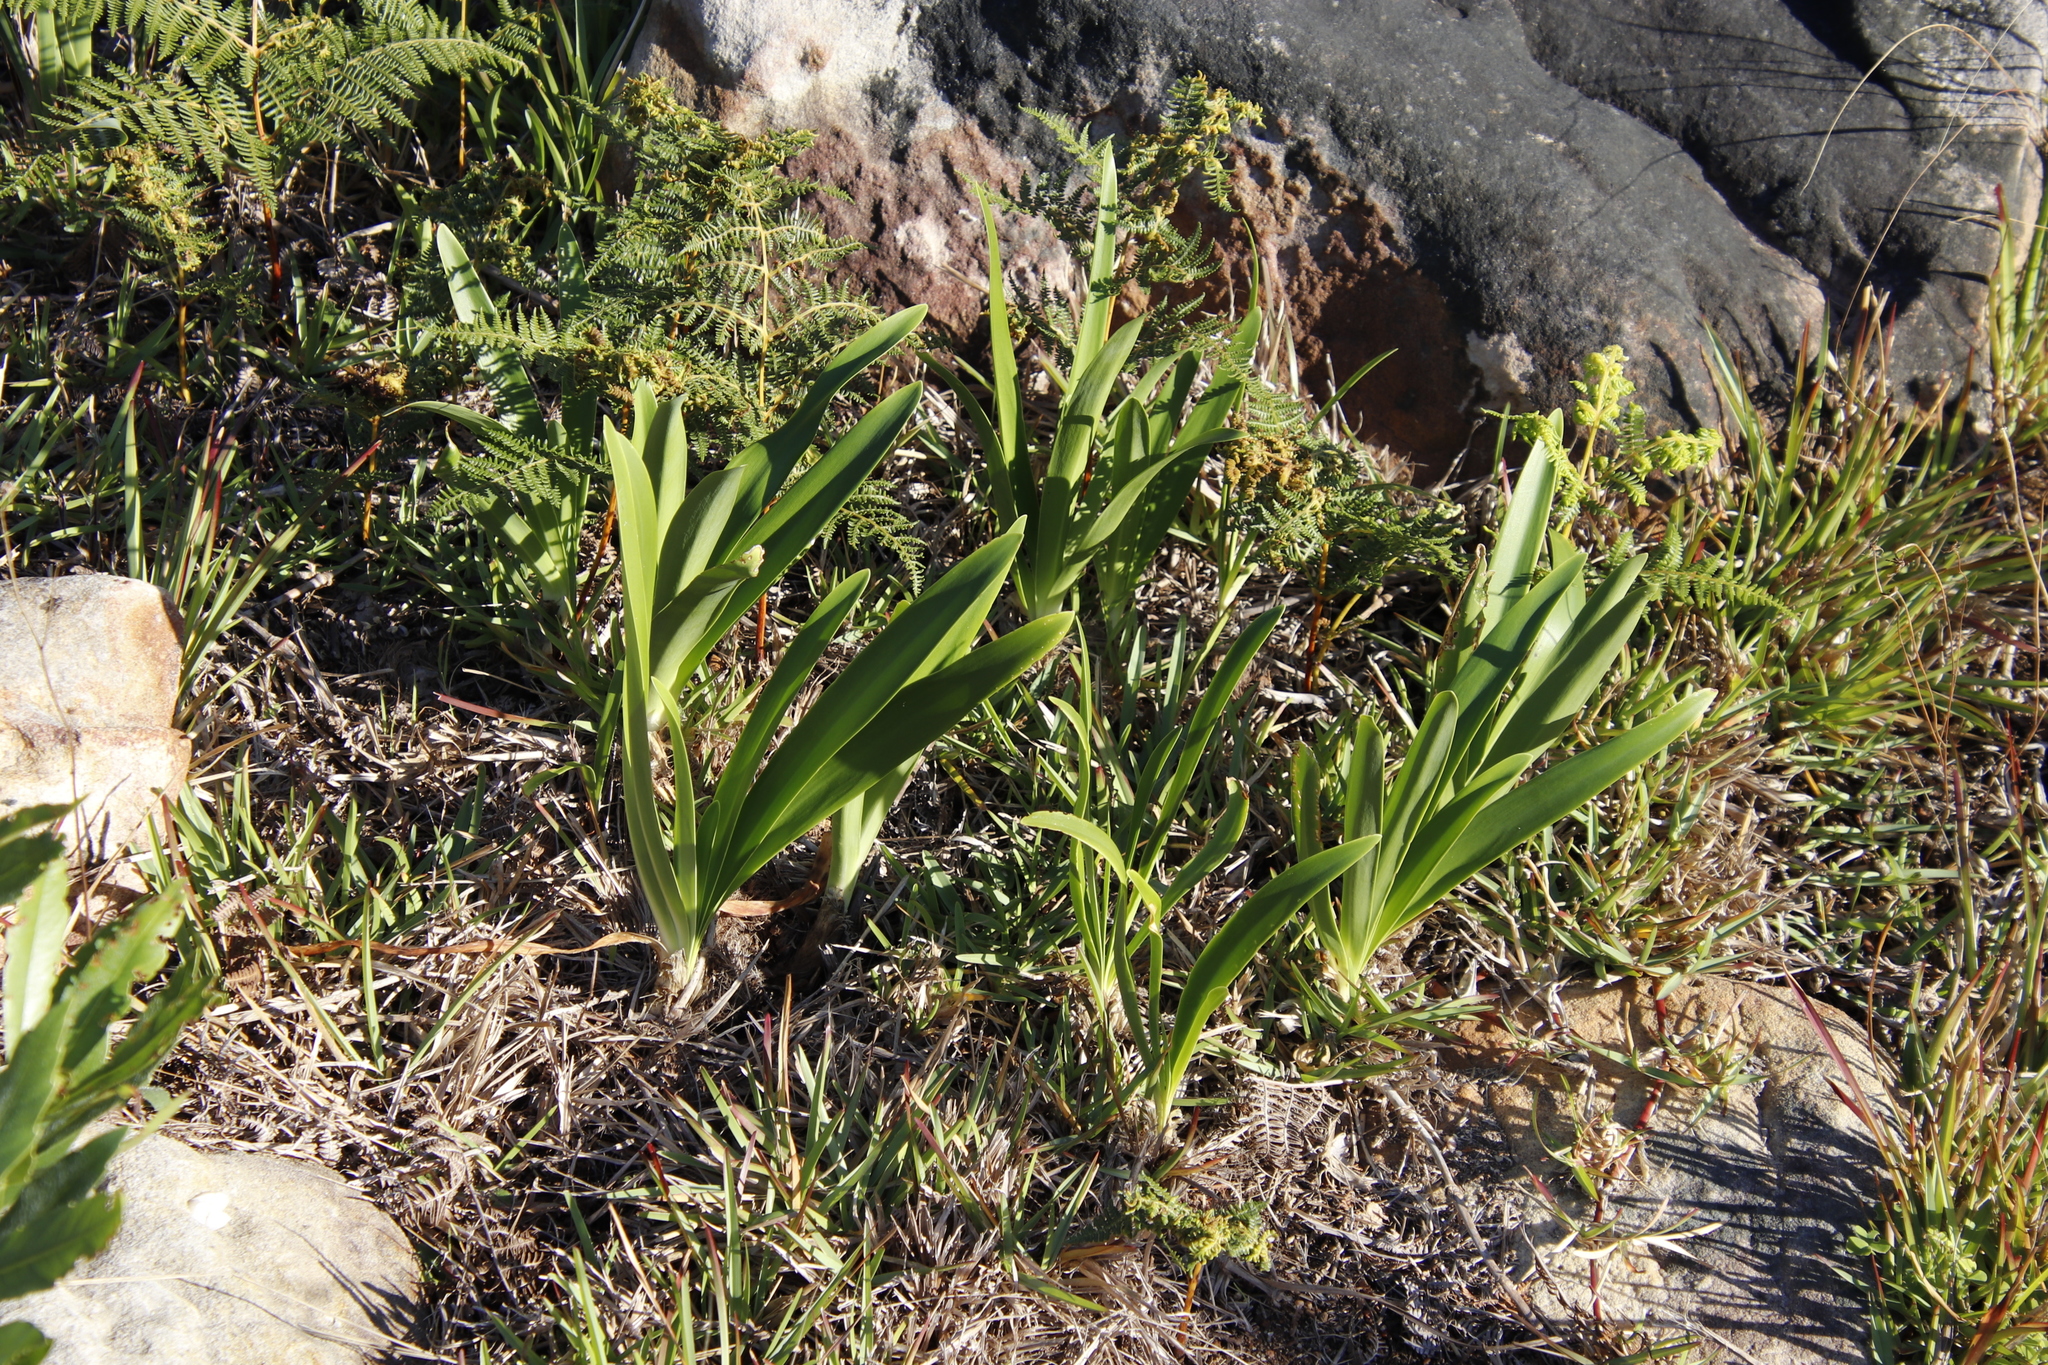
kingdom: Plantae
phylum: Tracheophyta
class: Liliopsida
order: Asparagales
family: Amaryllidaceae
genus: Agapanthus
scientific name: Agapanthus africanus
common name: Lily-of-the-nile
